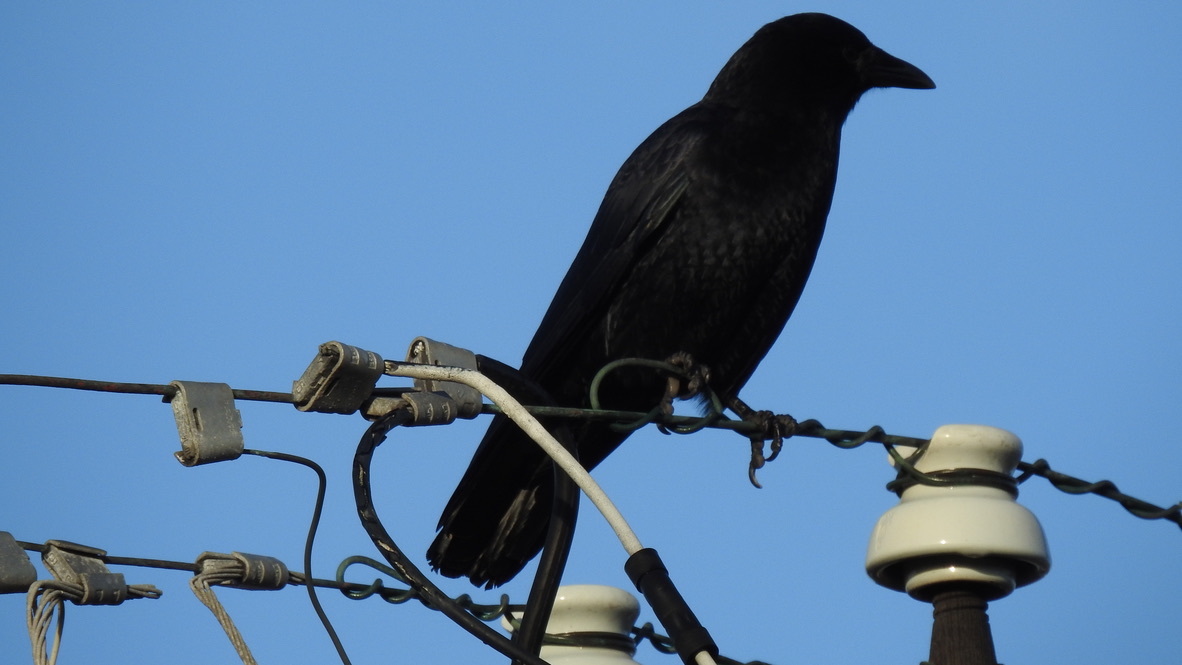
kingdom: Animalia
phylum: Chordata
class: Aves
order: Passeriformes
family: Corvidae
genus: Corvus
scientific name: Corvus brachyrhynchos
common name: American crow
